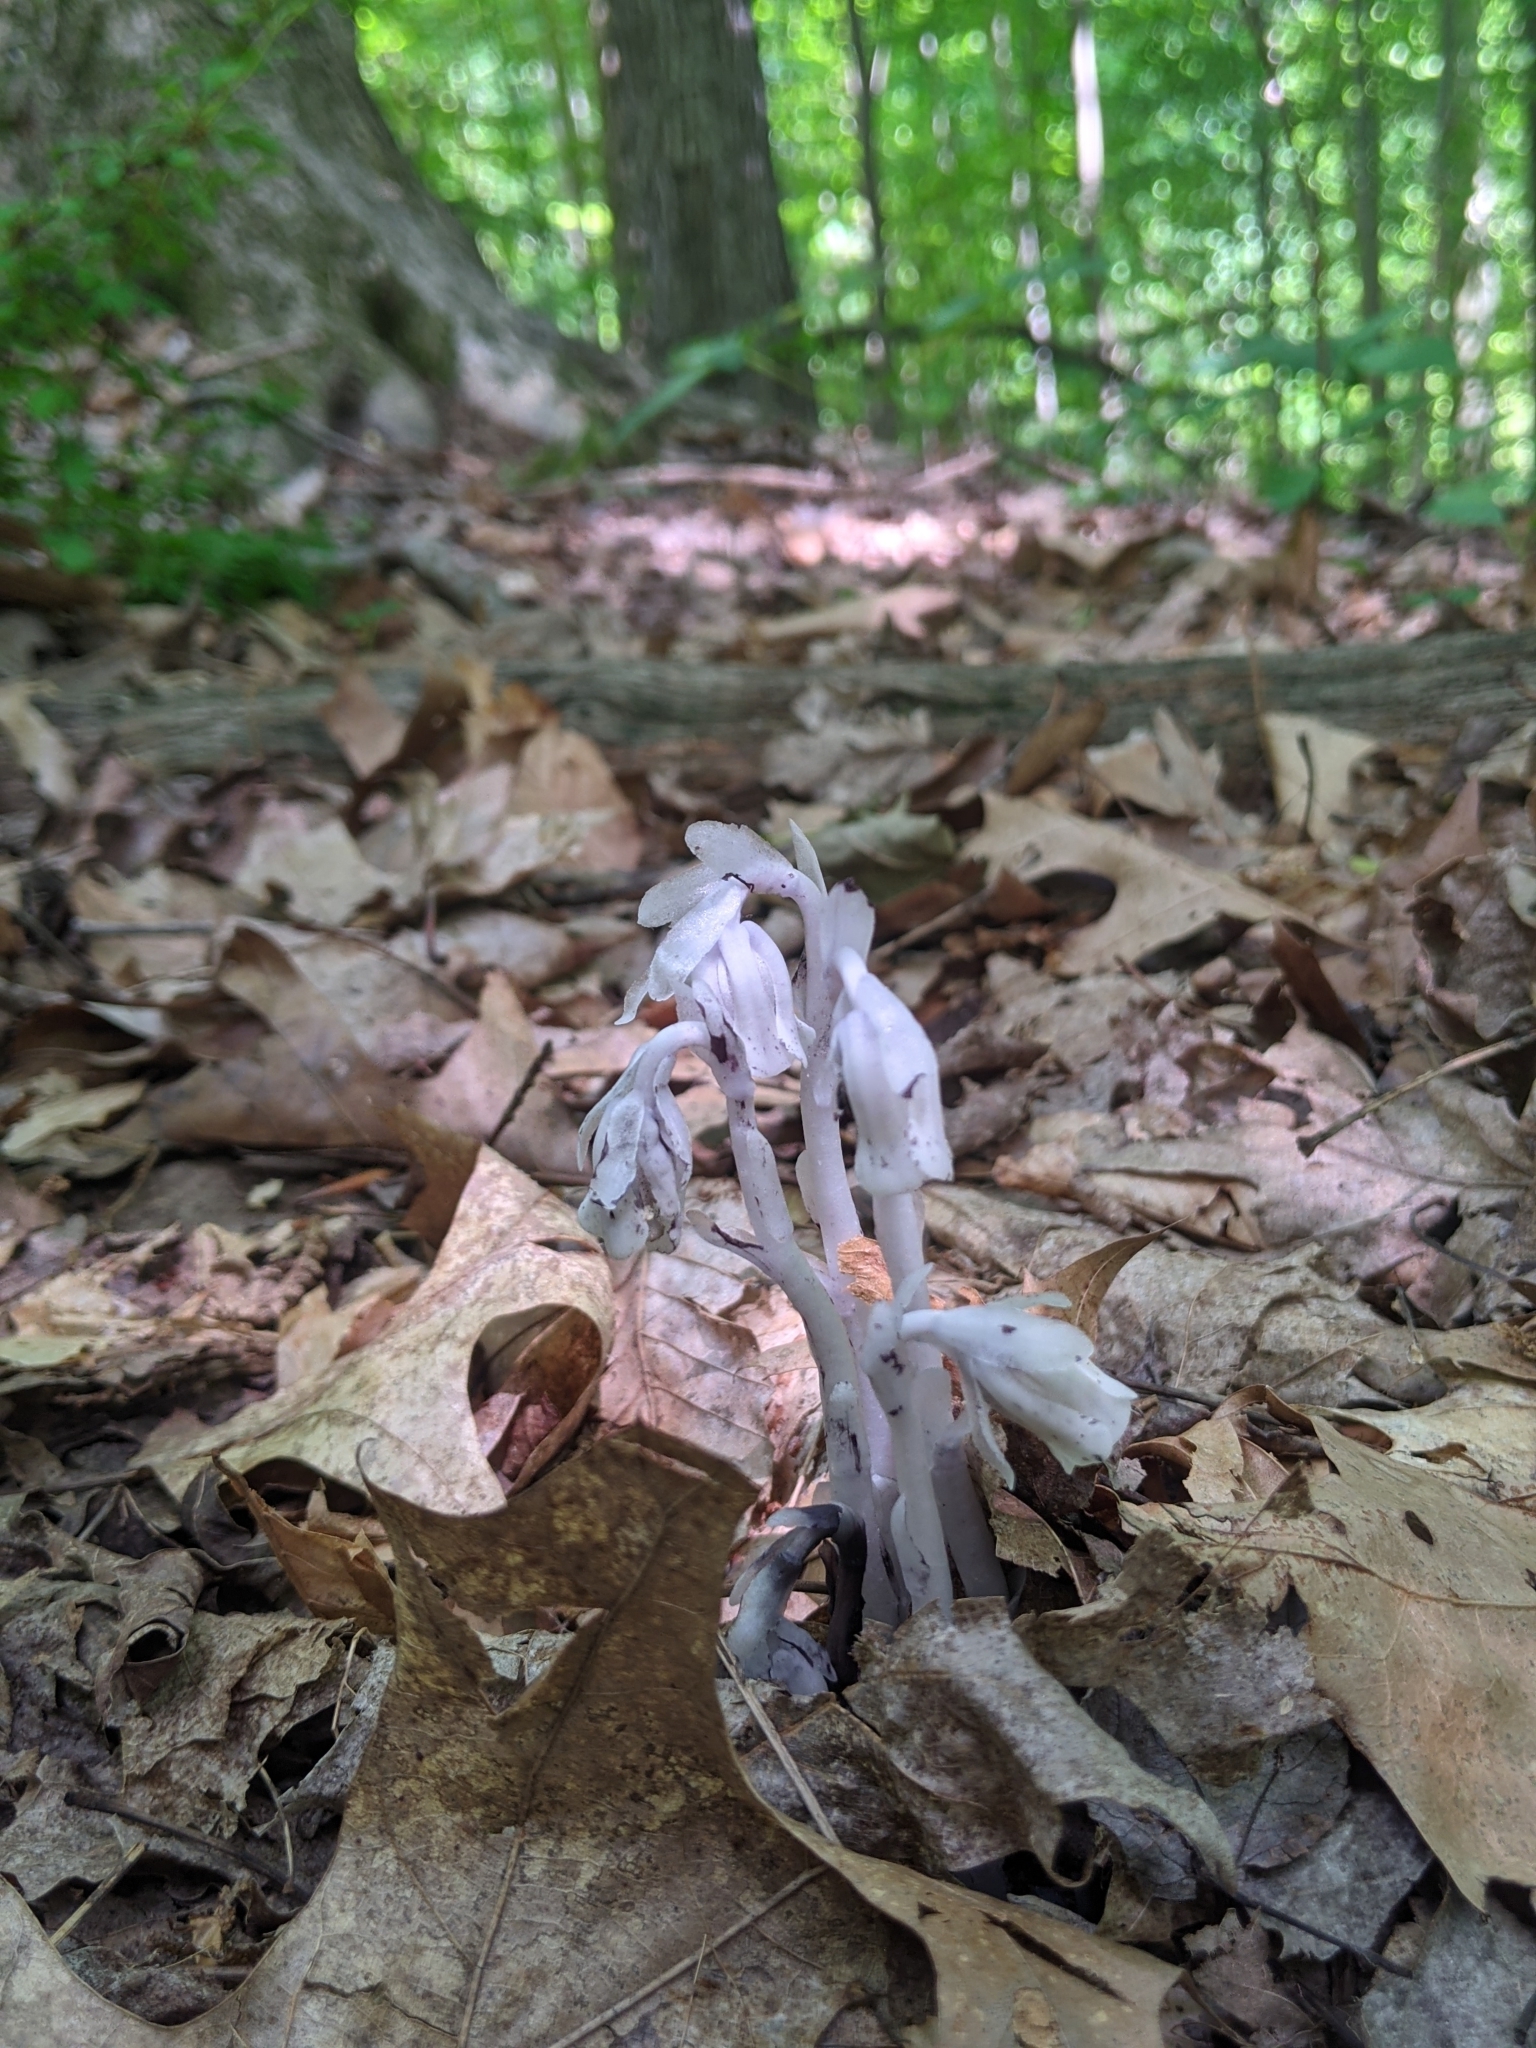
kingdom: Plantae
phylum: Tracheophyta
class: Magnoliopsida
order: Ericales
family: Ericaceae
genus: Monotropa
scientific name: Monotropa uniflora
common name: Convulsion root
